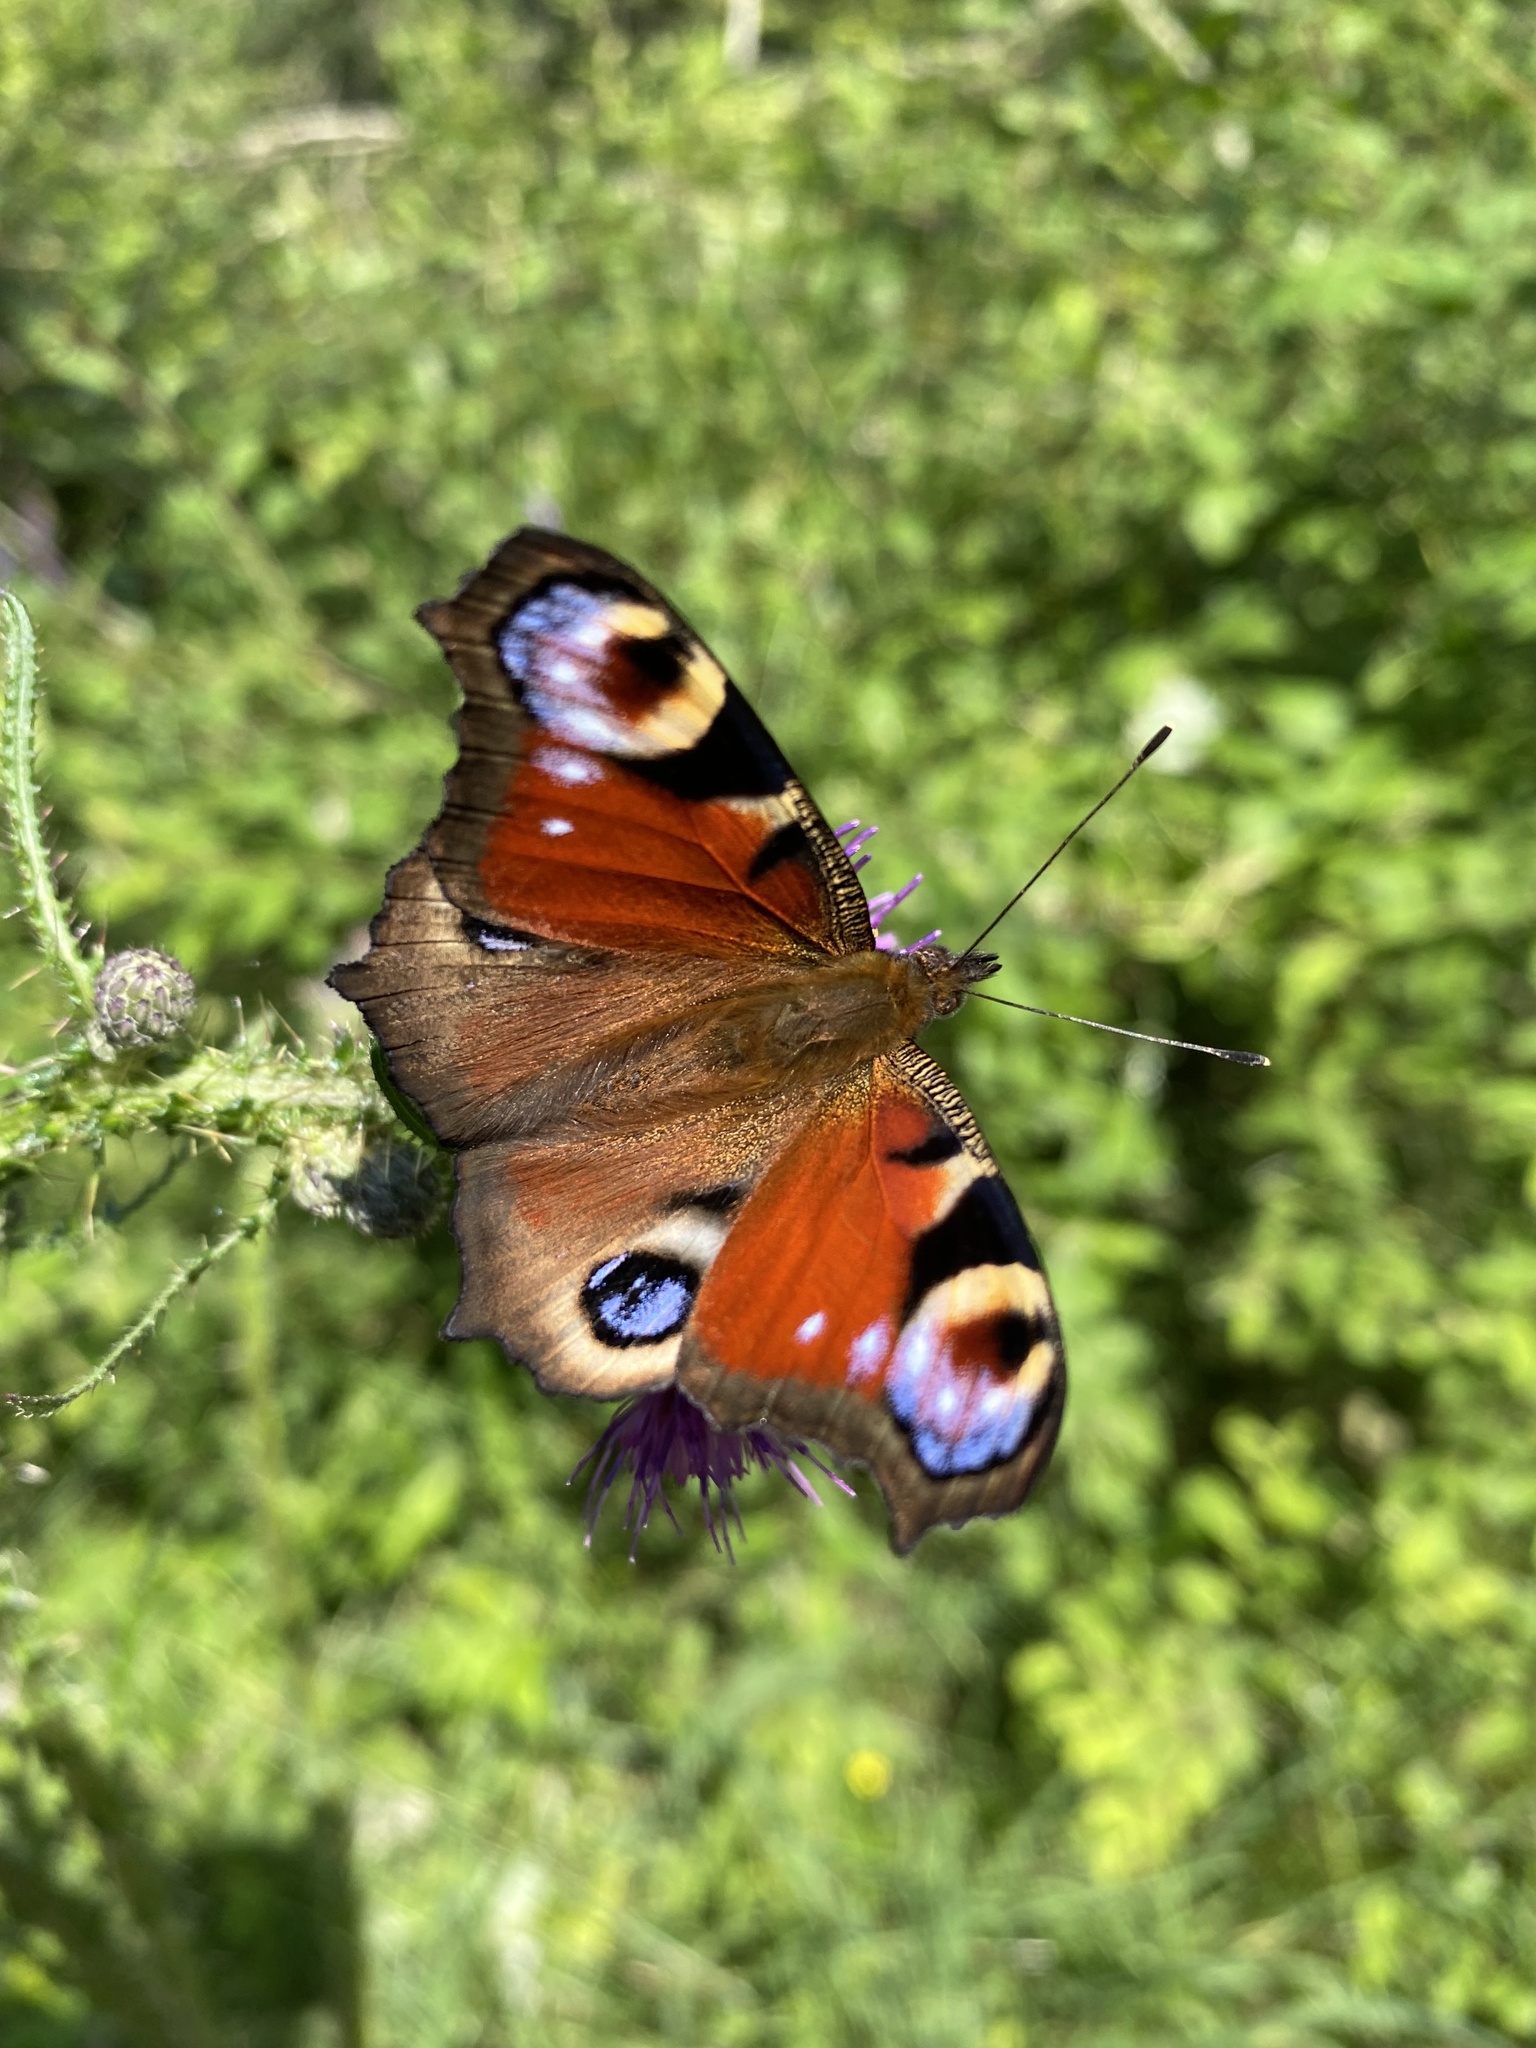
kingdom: Animalia
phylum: Arthropoda
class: Insecta
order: Lepidoptera
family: Nymphalidae
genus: Aglais
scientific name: Aglais io
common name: Peacock
